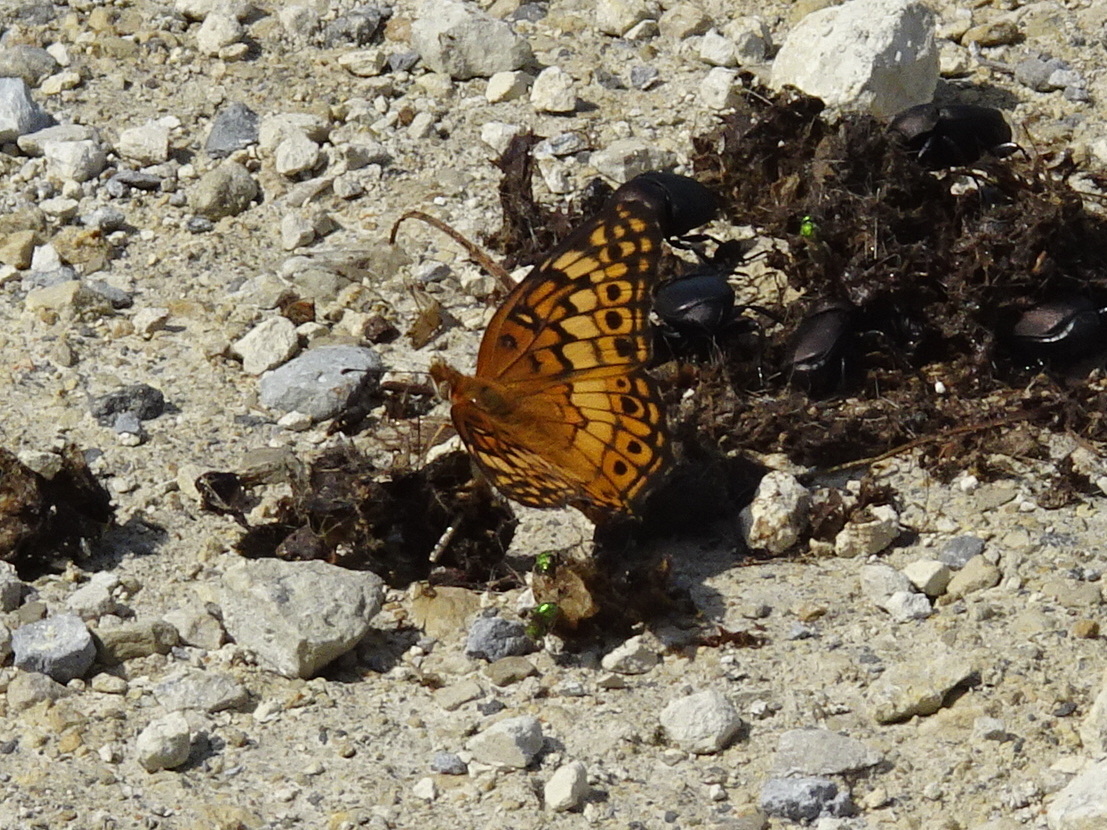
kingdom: Animalia
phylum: Arthropoda
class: Insecta
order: Lepidoptera
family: Nymphalidae
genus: Euptoieta
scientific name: Euptoieta claudia
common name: Variegated fritillary
